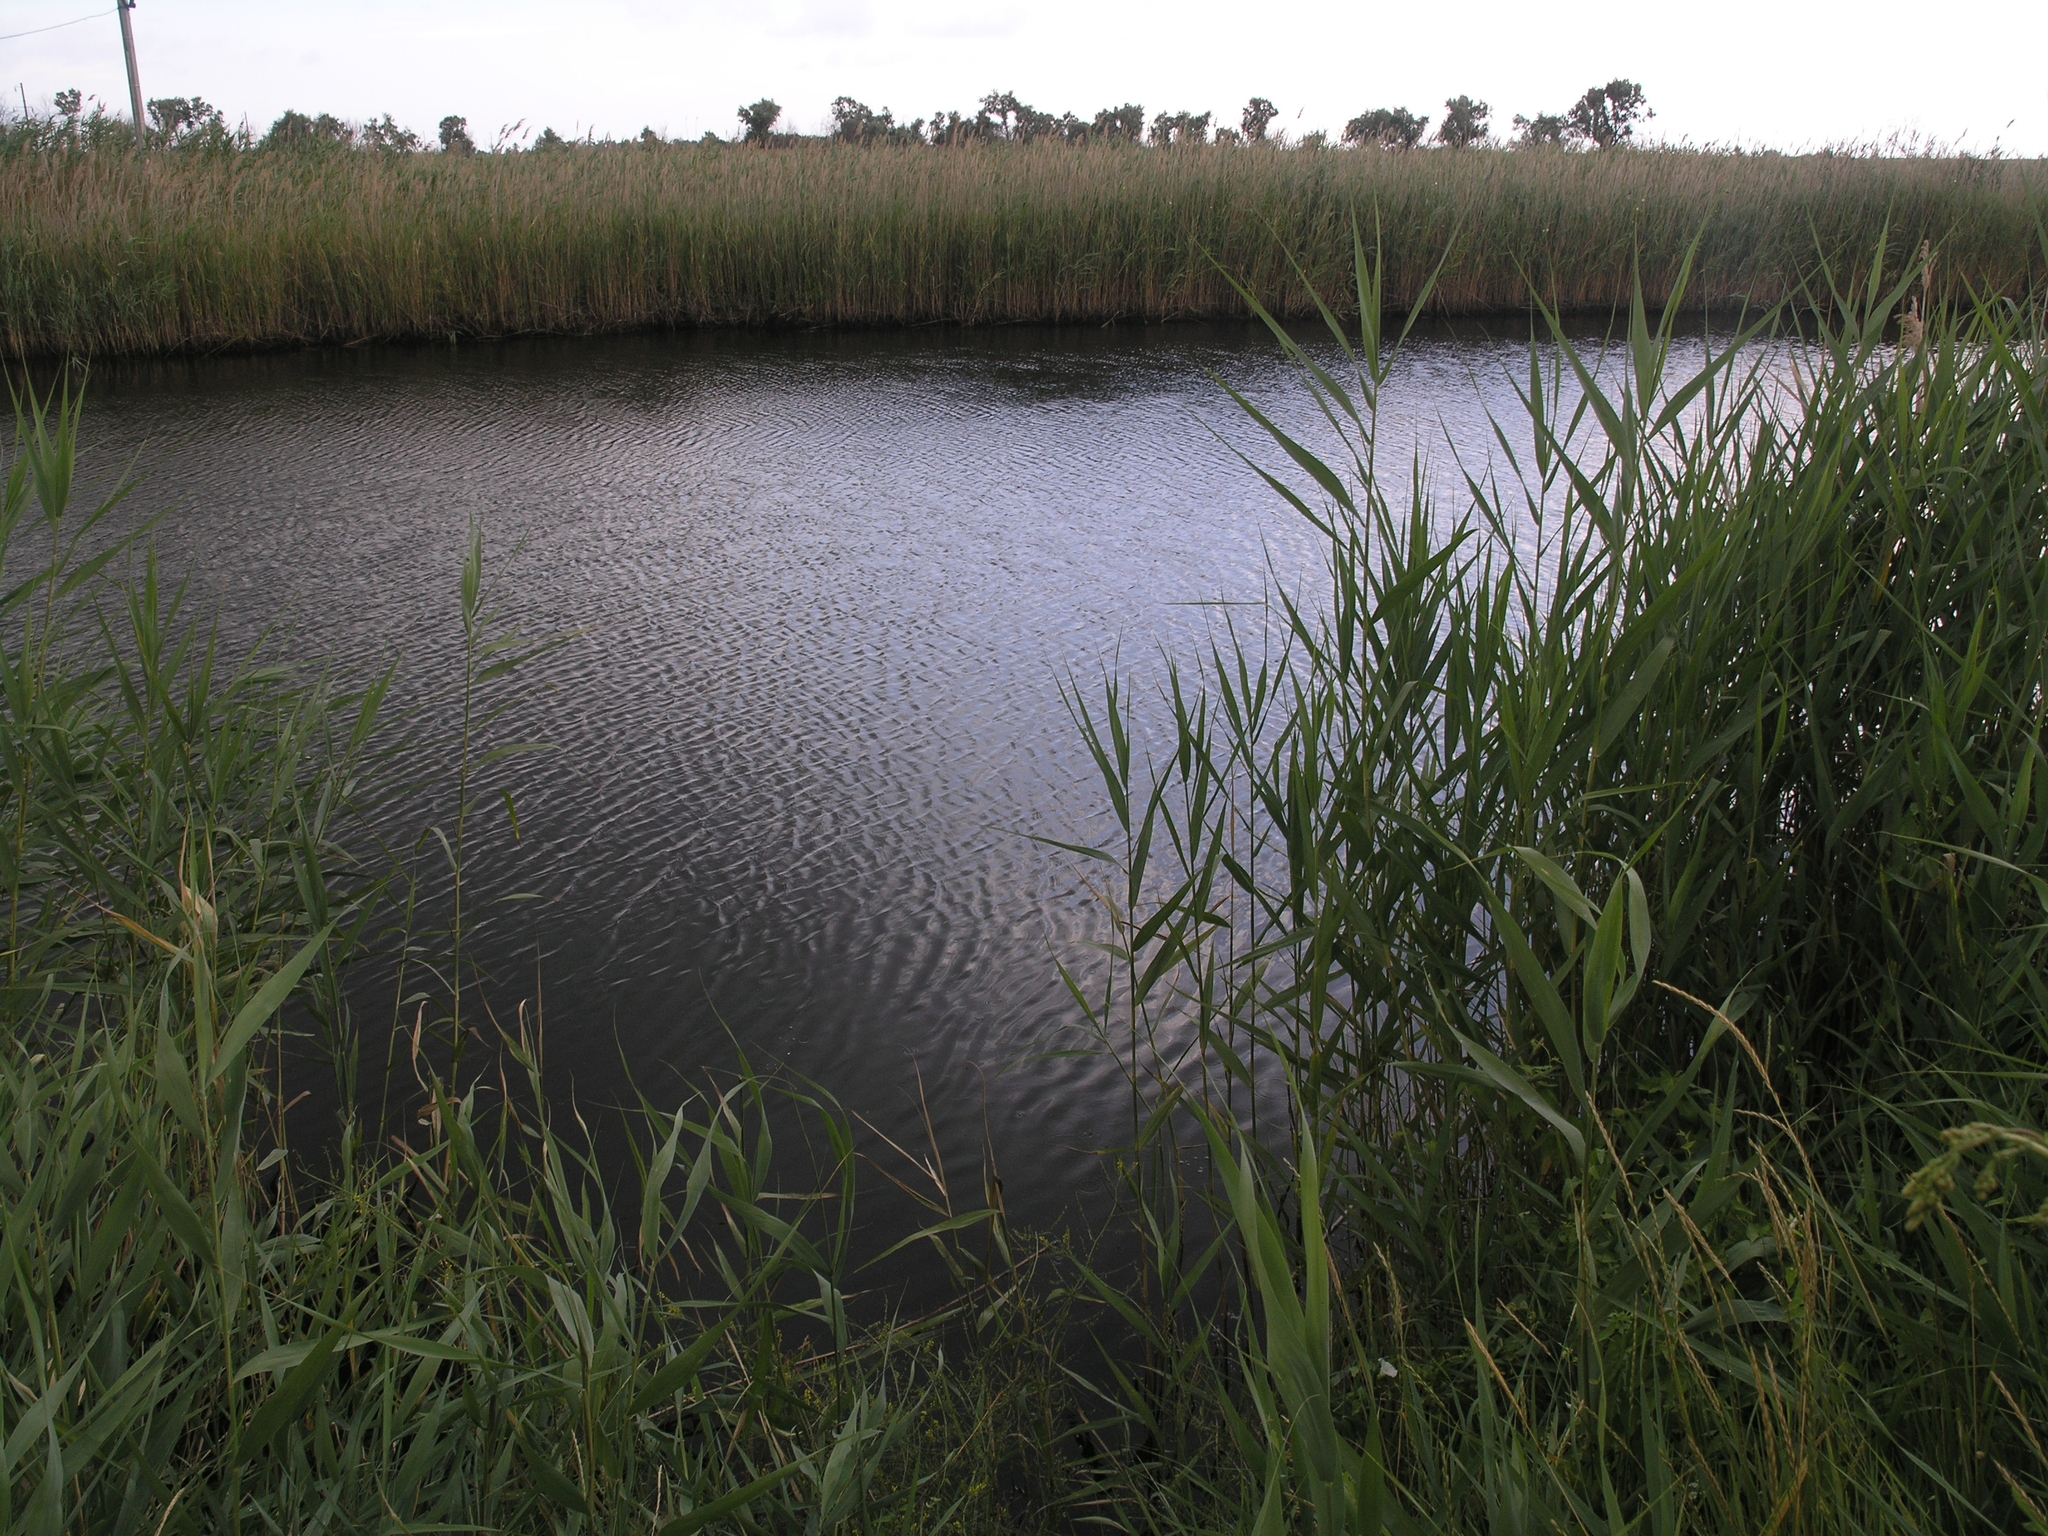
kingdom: Plantae
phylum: Tracheophyta
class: Liliopsida
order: Poales
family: Poaceae
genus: Phragmites
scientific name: Phragmites australis
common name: Common reed
